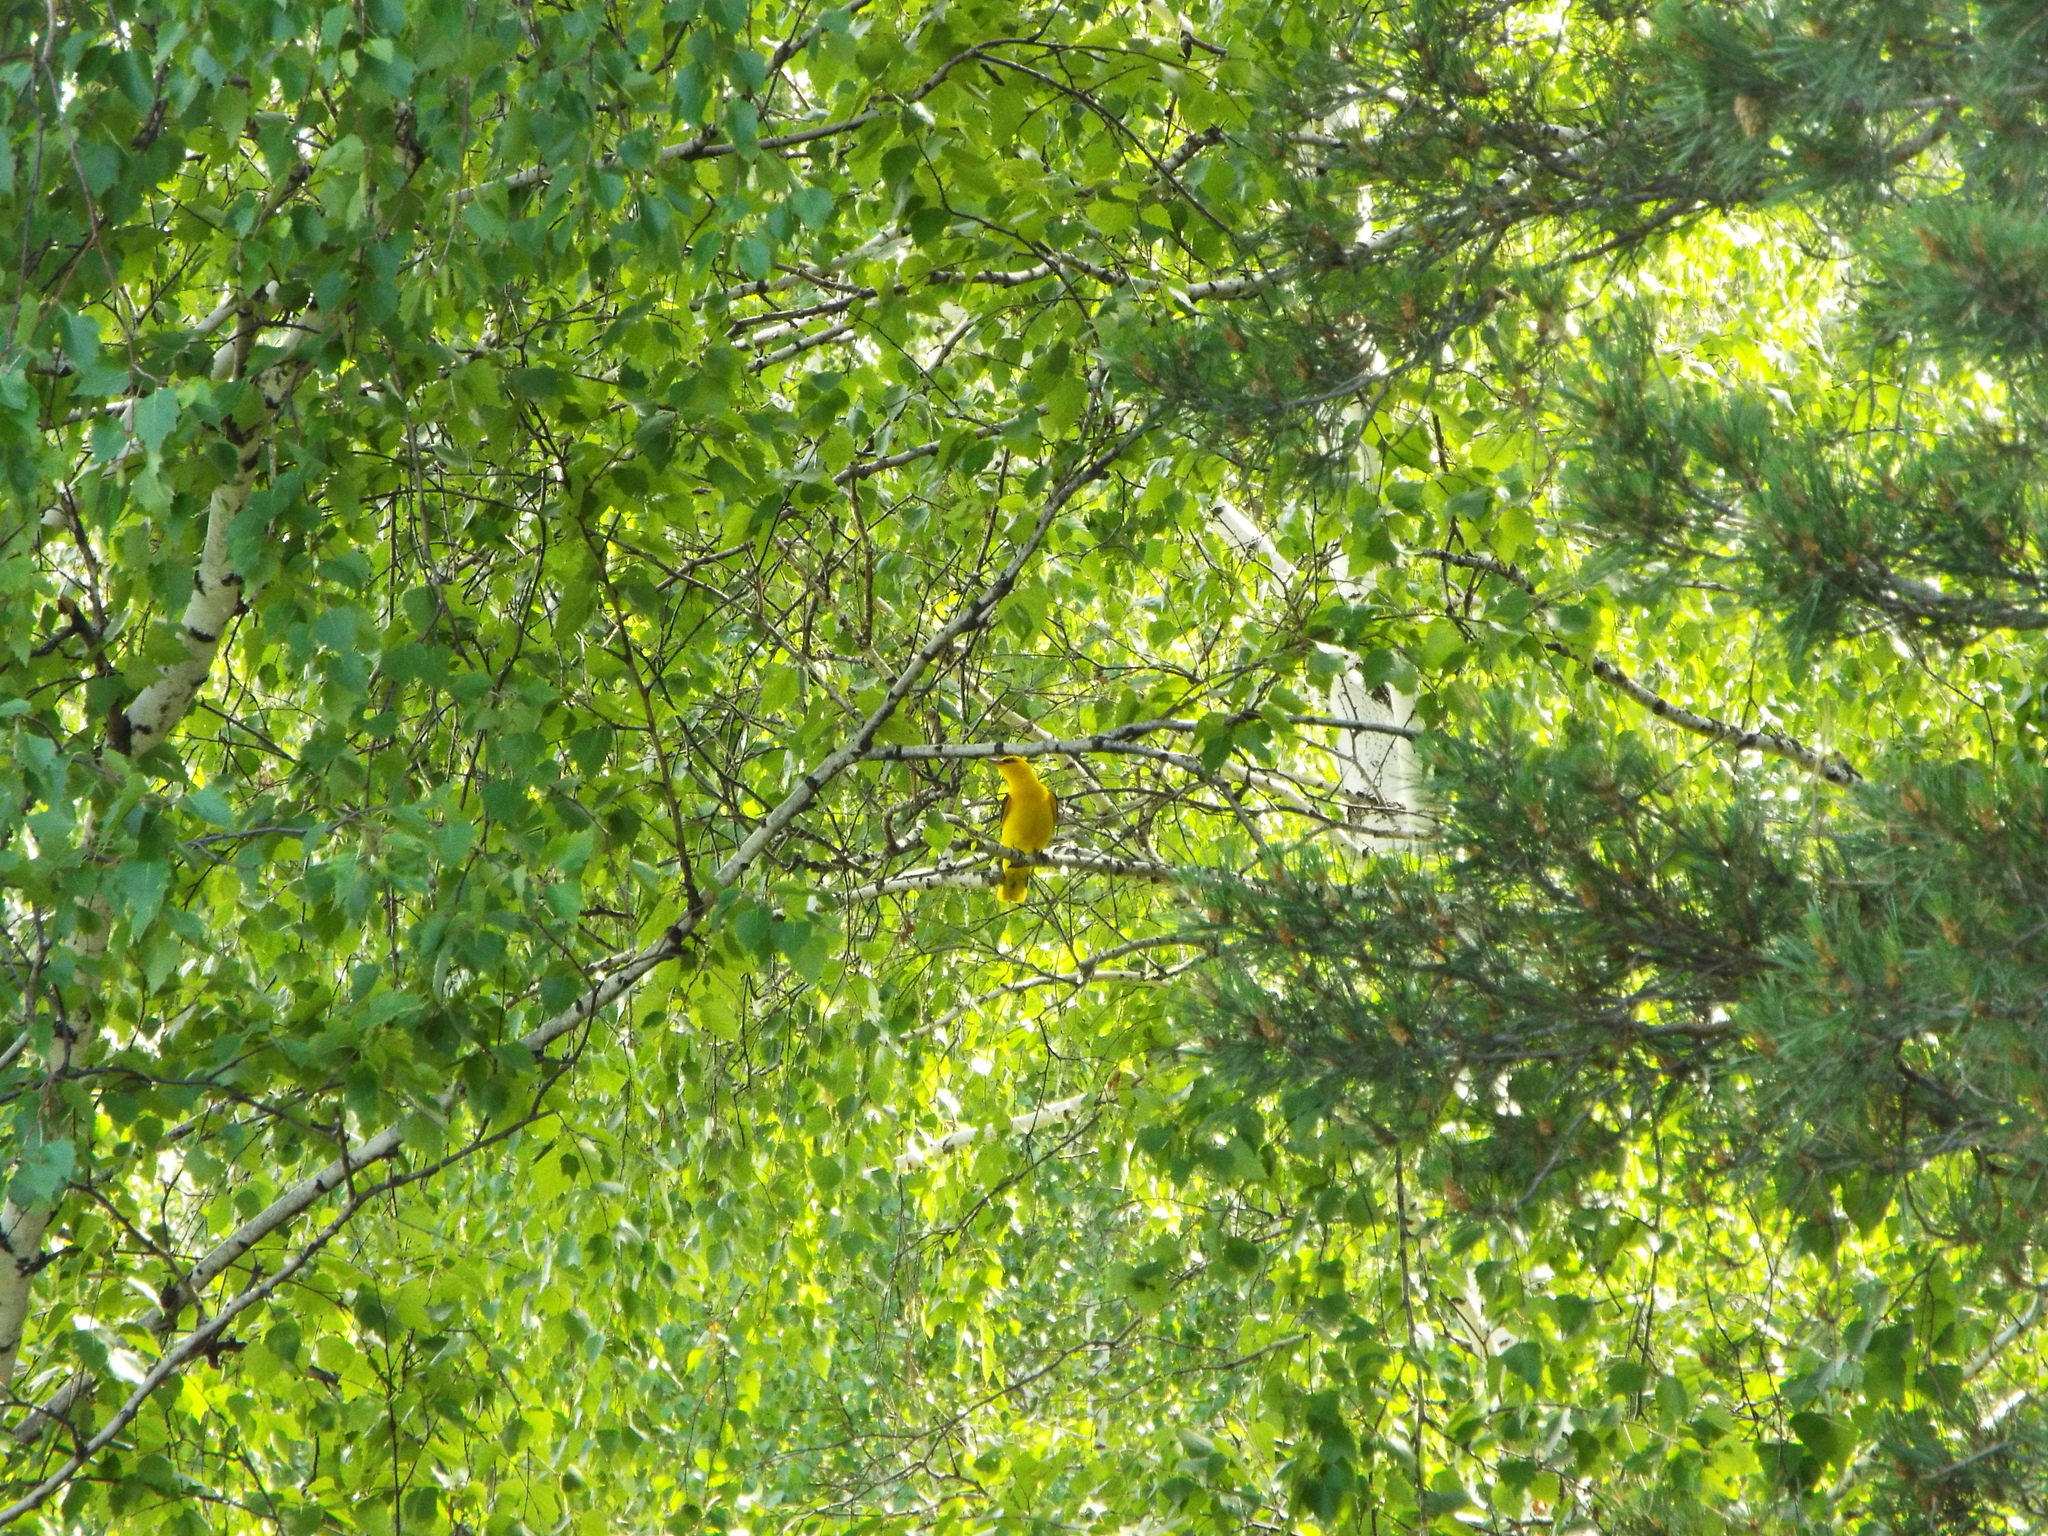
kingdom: Animalia
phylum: Chordata
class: Aves
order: Passeriformes
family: Oriolidae
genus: Oriolus
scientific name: Oriolus oriolus
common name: Eurasian golden oriole
